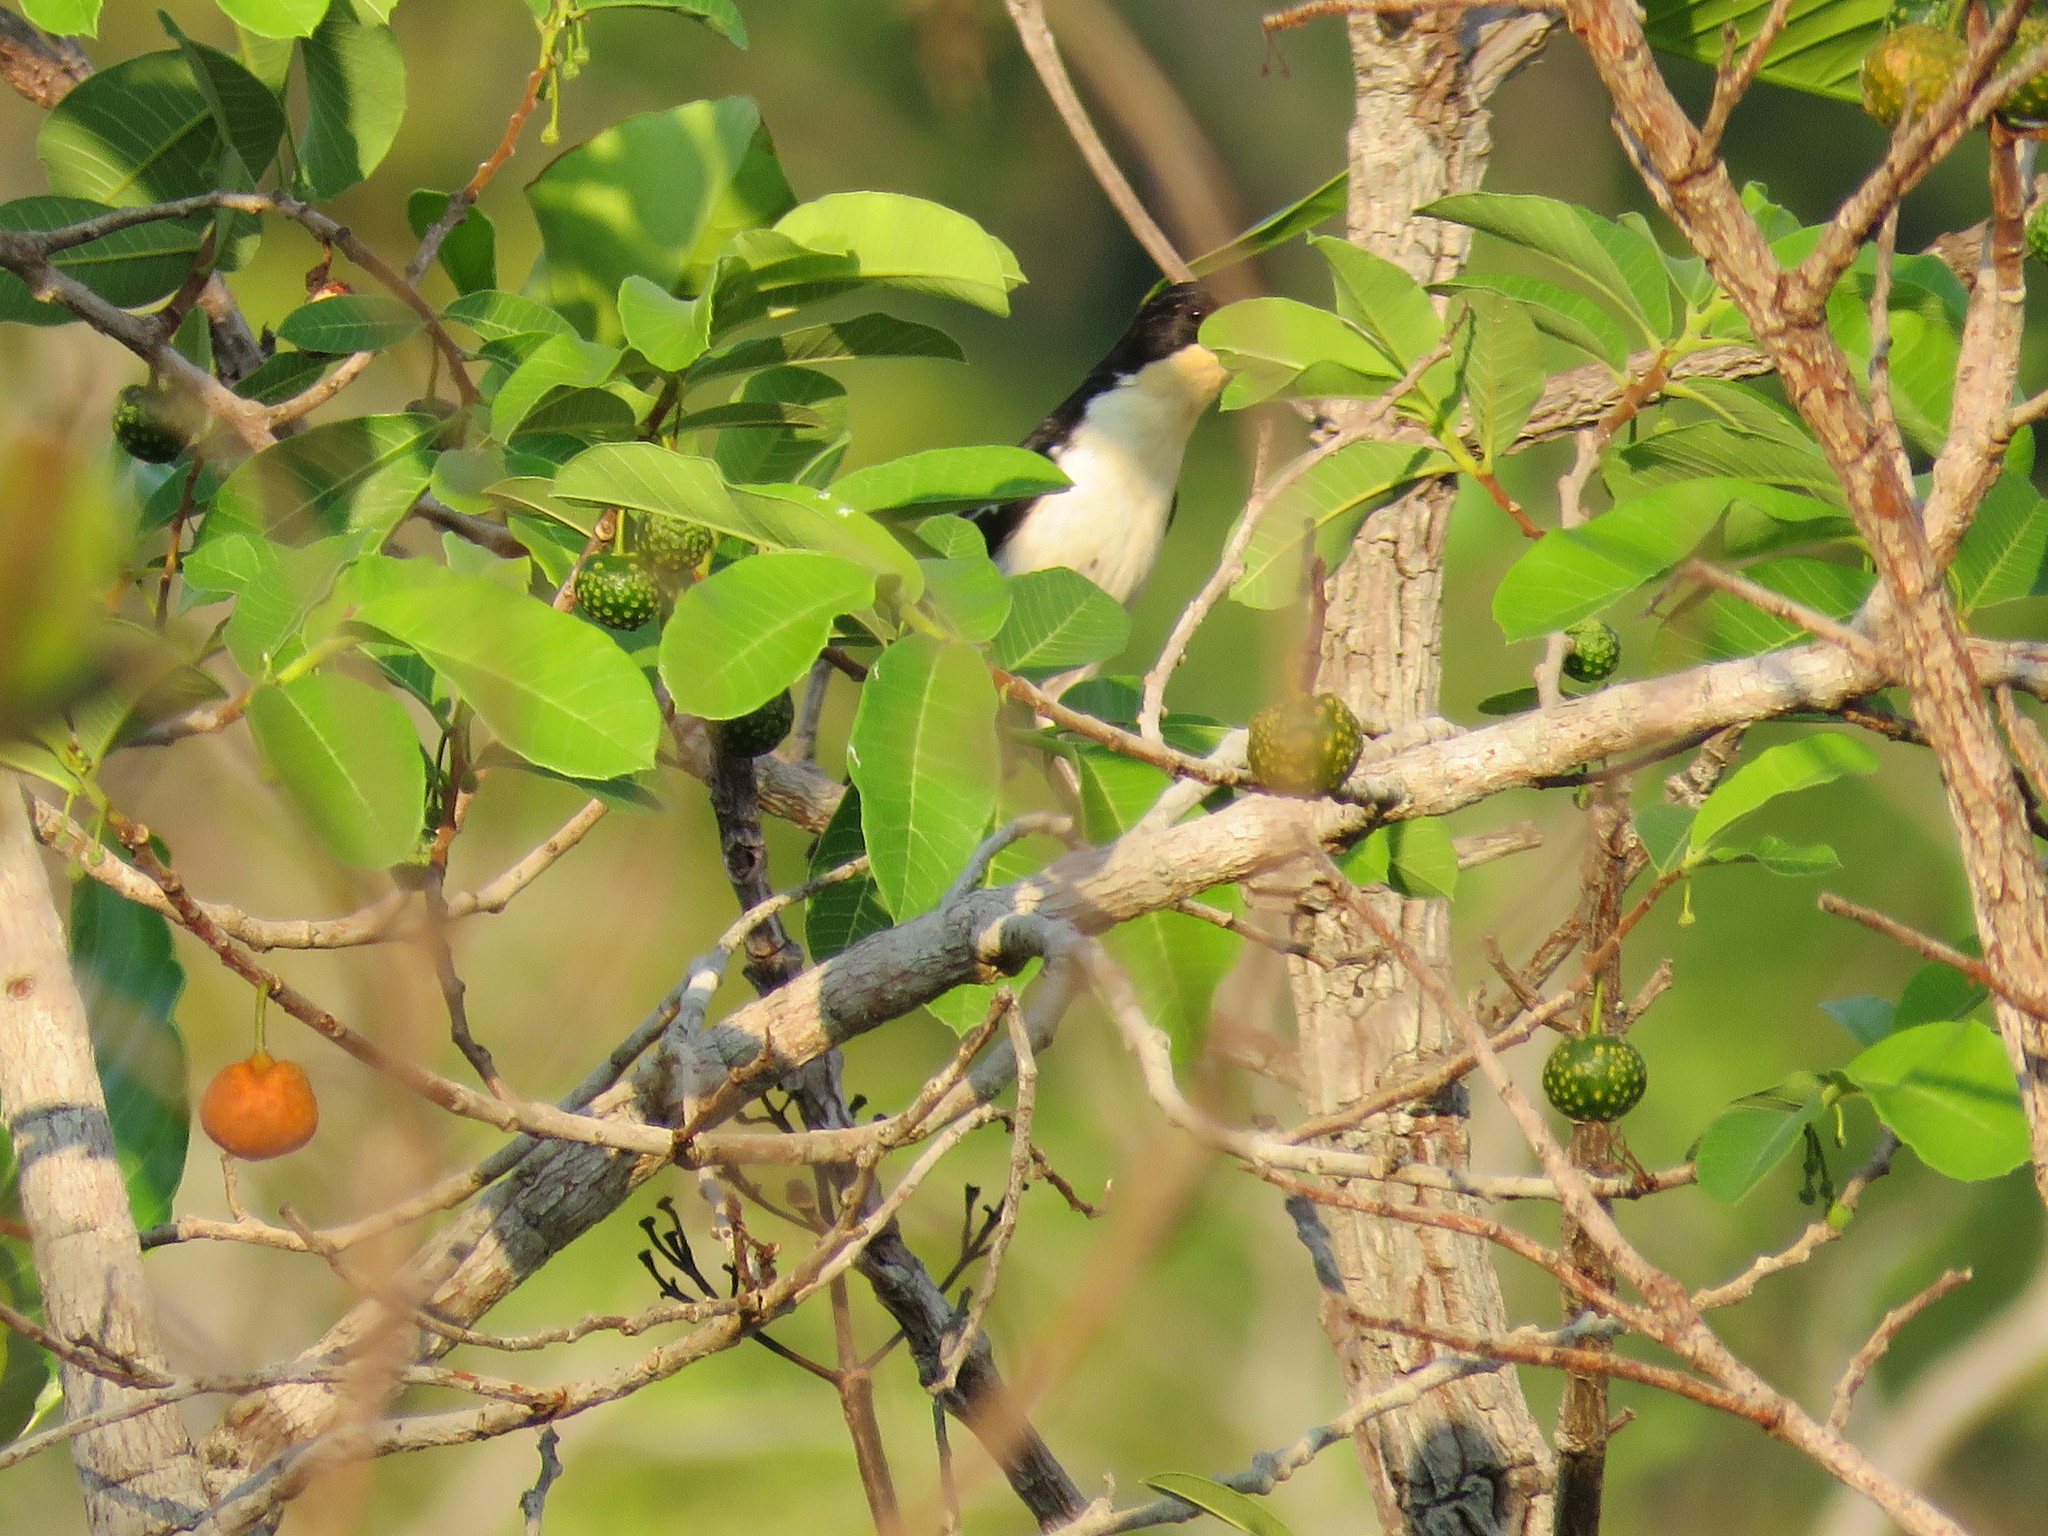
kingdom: Animalia
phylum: Chordata
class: Aves
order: Passeriformes
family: Thraupidae
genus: Cypsnagra
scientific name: Cypsnagra hirundinacea
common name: White-rumped tanager
